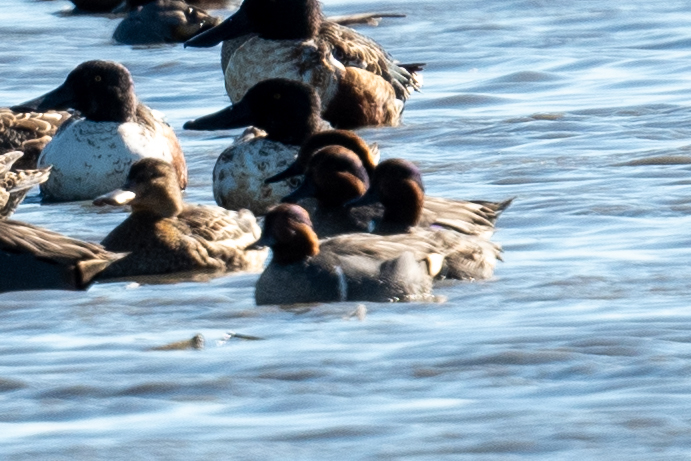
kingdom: Animalia
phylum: Chordata
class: Aves
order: Anseriformes
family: Anatidae
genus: Anas
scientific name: Anas crecca
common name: Eurasian teal
